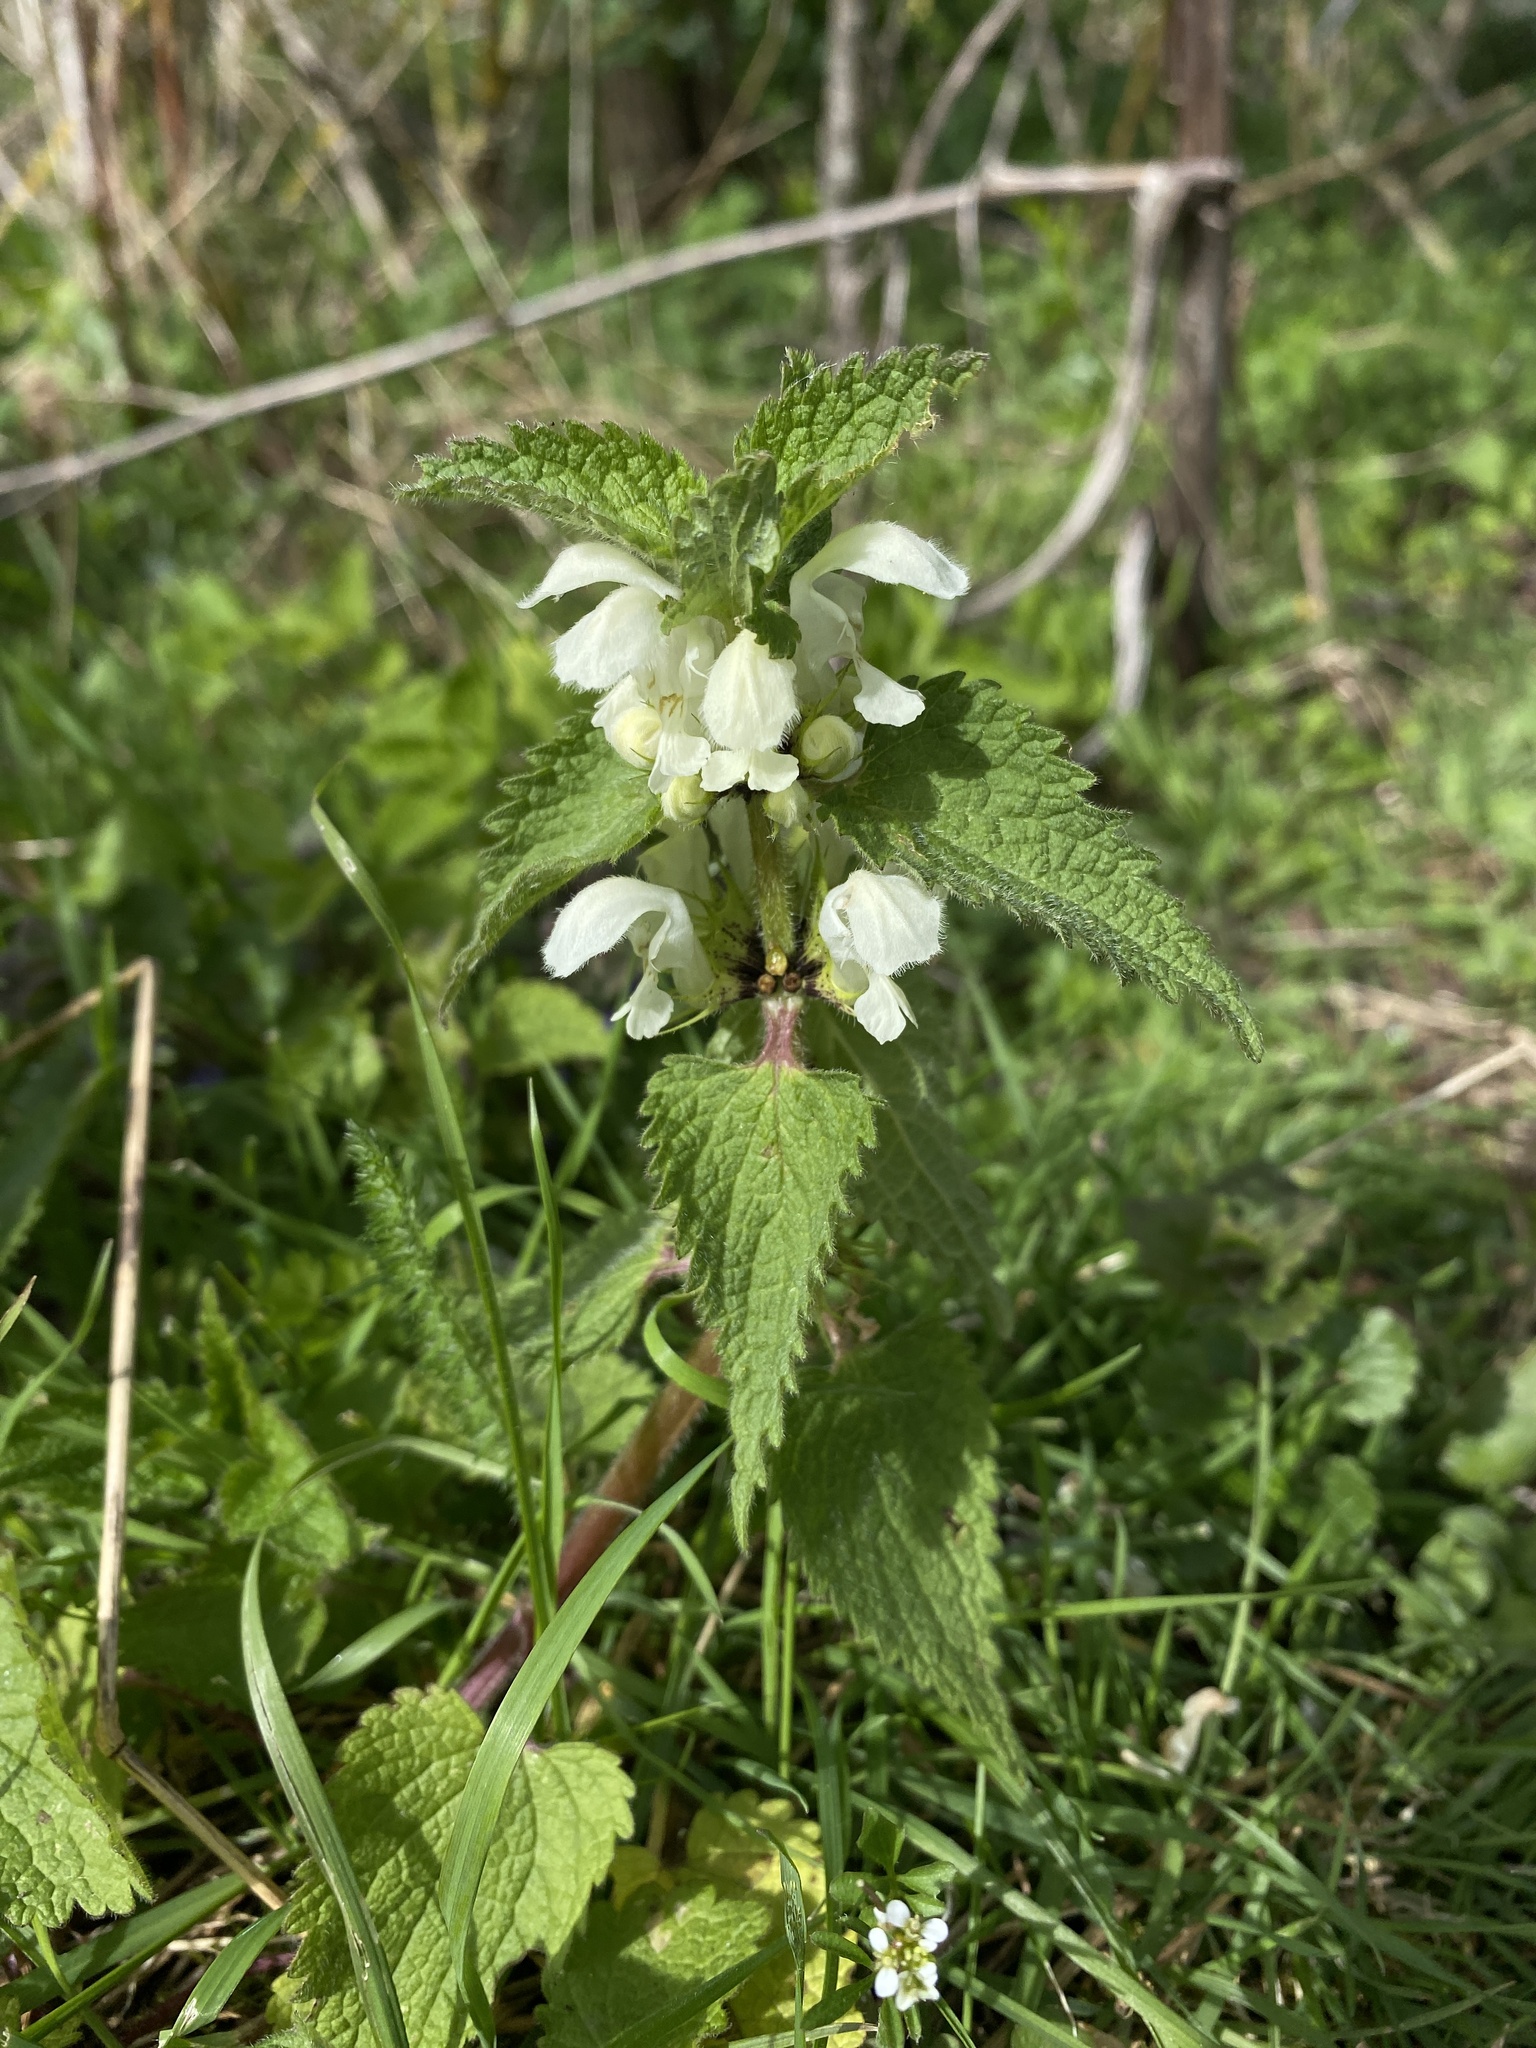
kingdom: Plantae
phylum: Tracheophyta
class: Magnoliopsida
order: Lamiales
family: Lamiaceae
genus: Lamium
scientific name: Lamium album
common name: White dead-nettle
